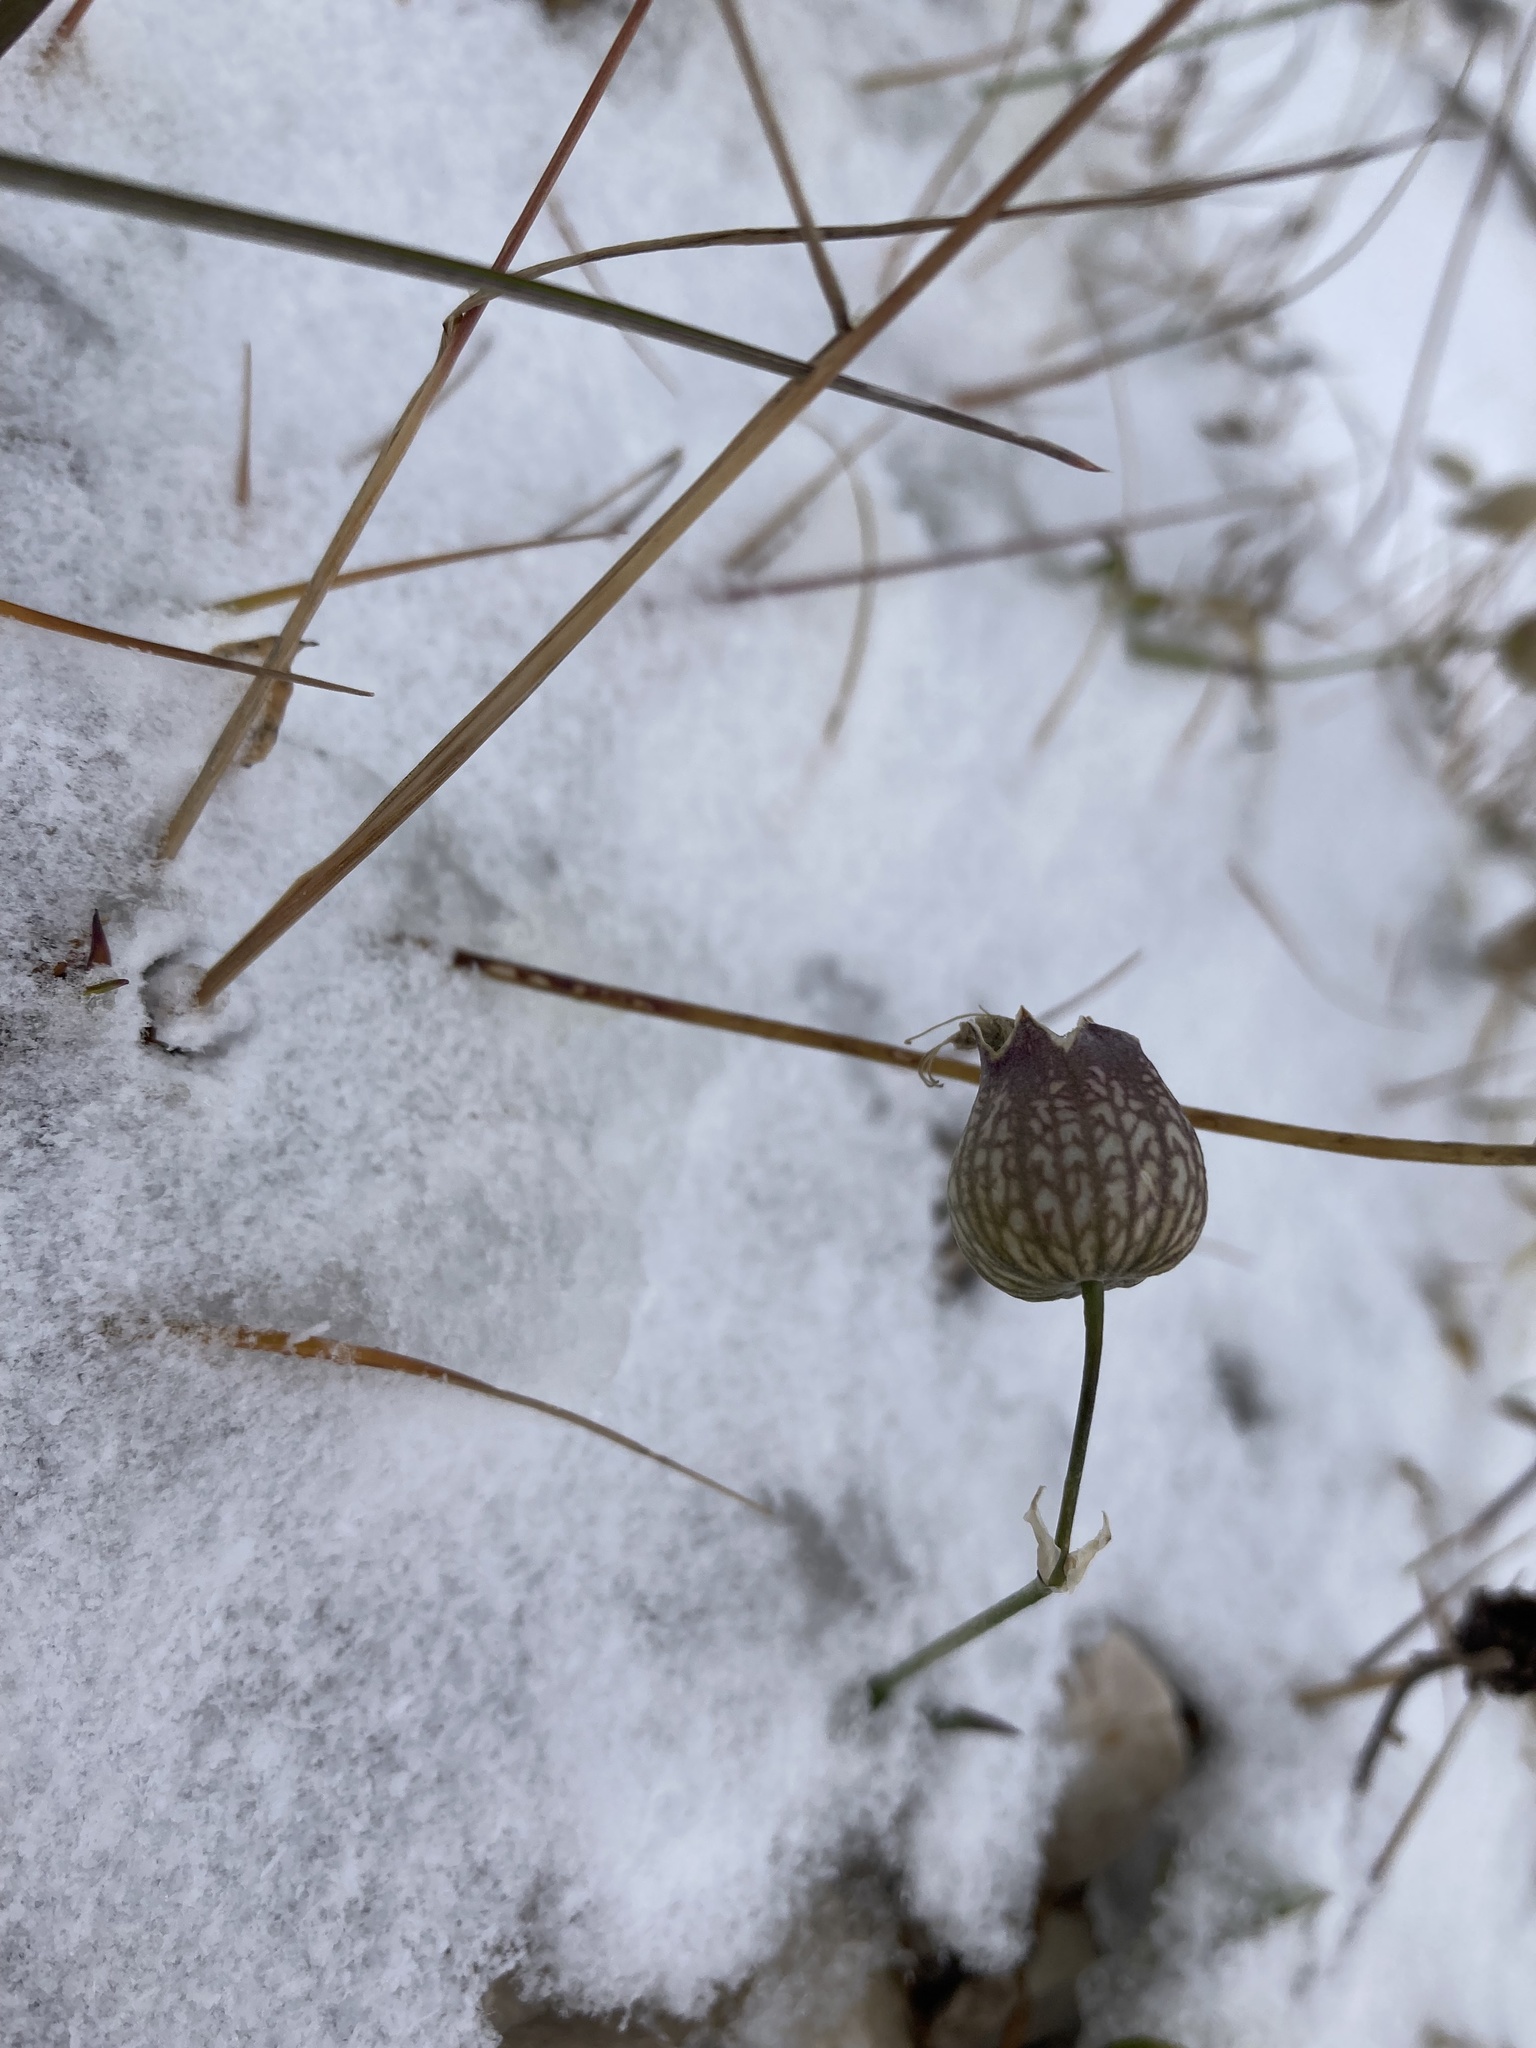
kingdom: Plantae
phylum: Tracheophyta
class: Magnoliopsida
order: Caryophyllales
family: Caryophyllaceae
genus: Silene
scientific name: Silene vulgaris
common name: Bladder campion
